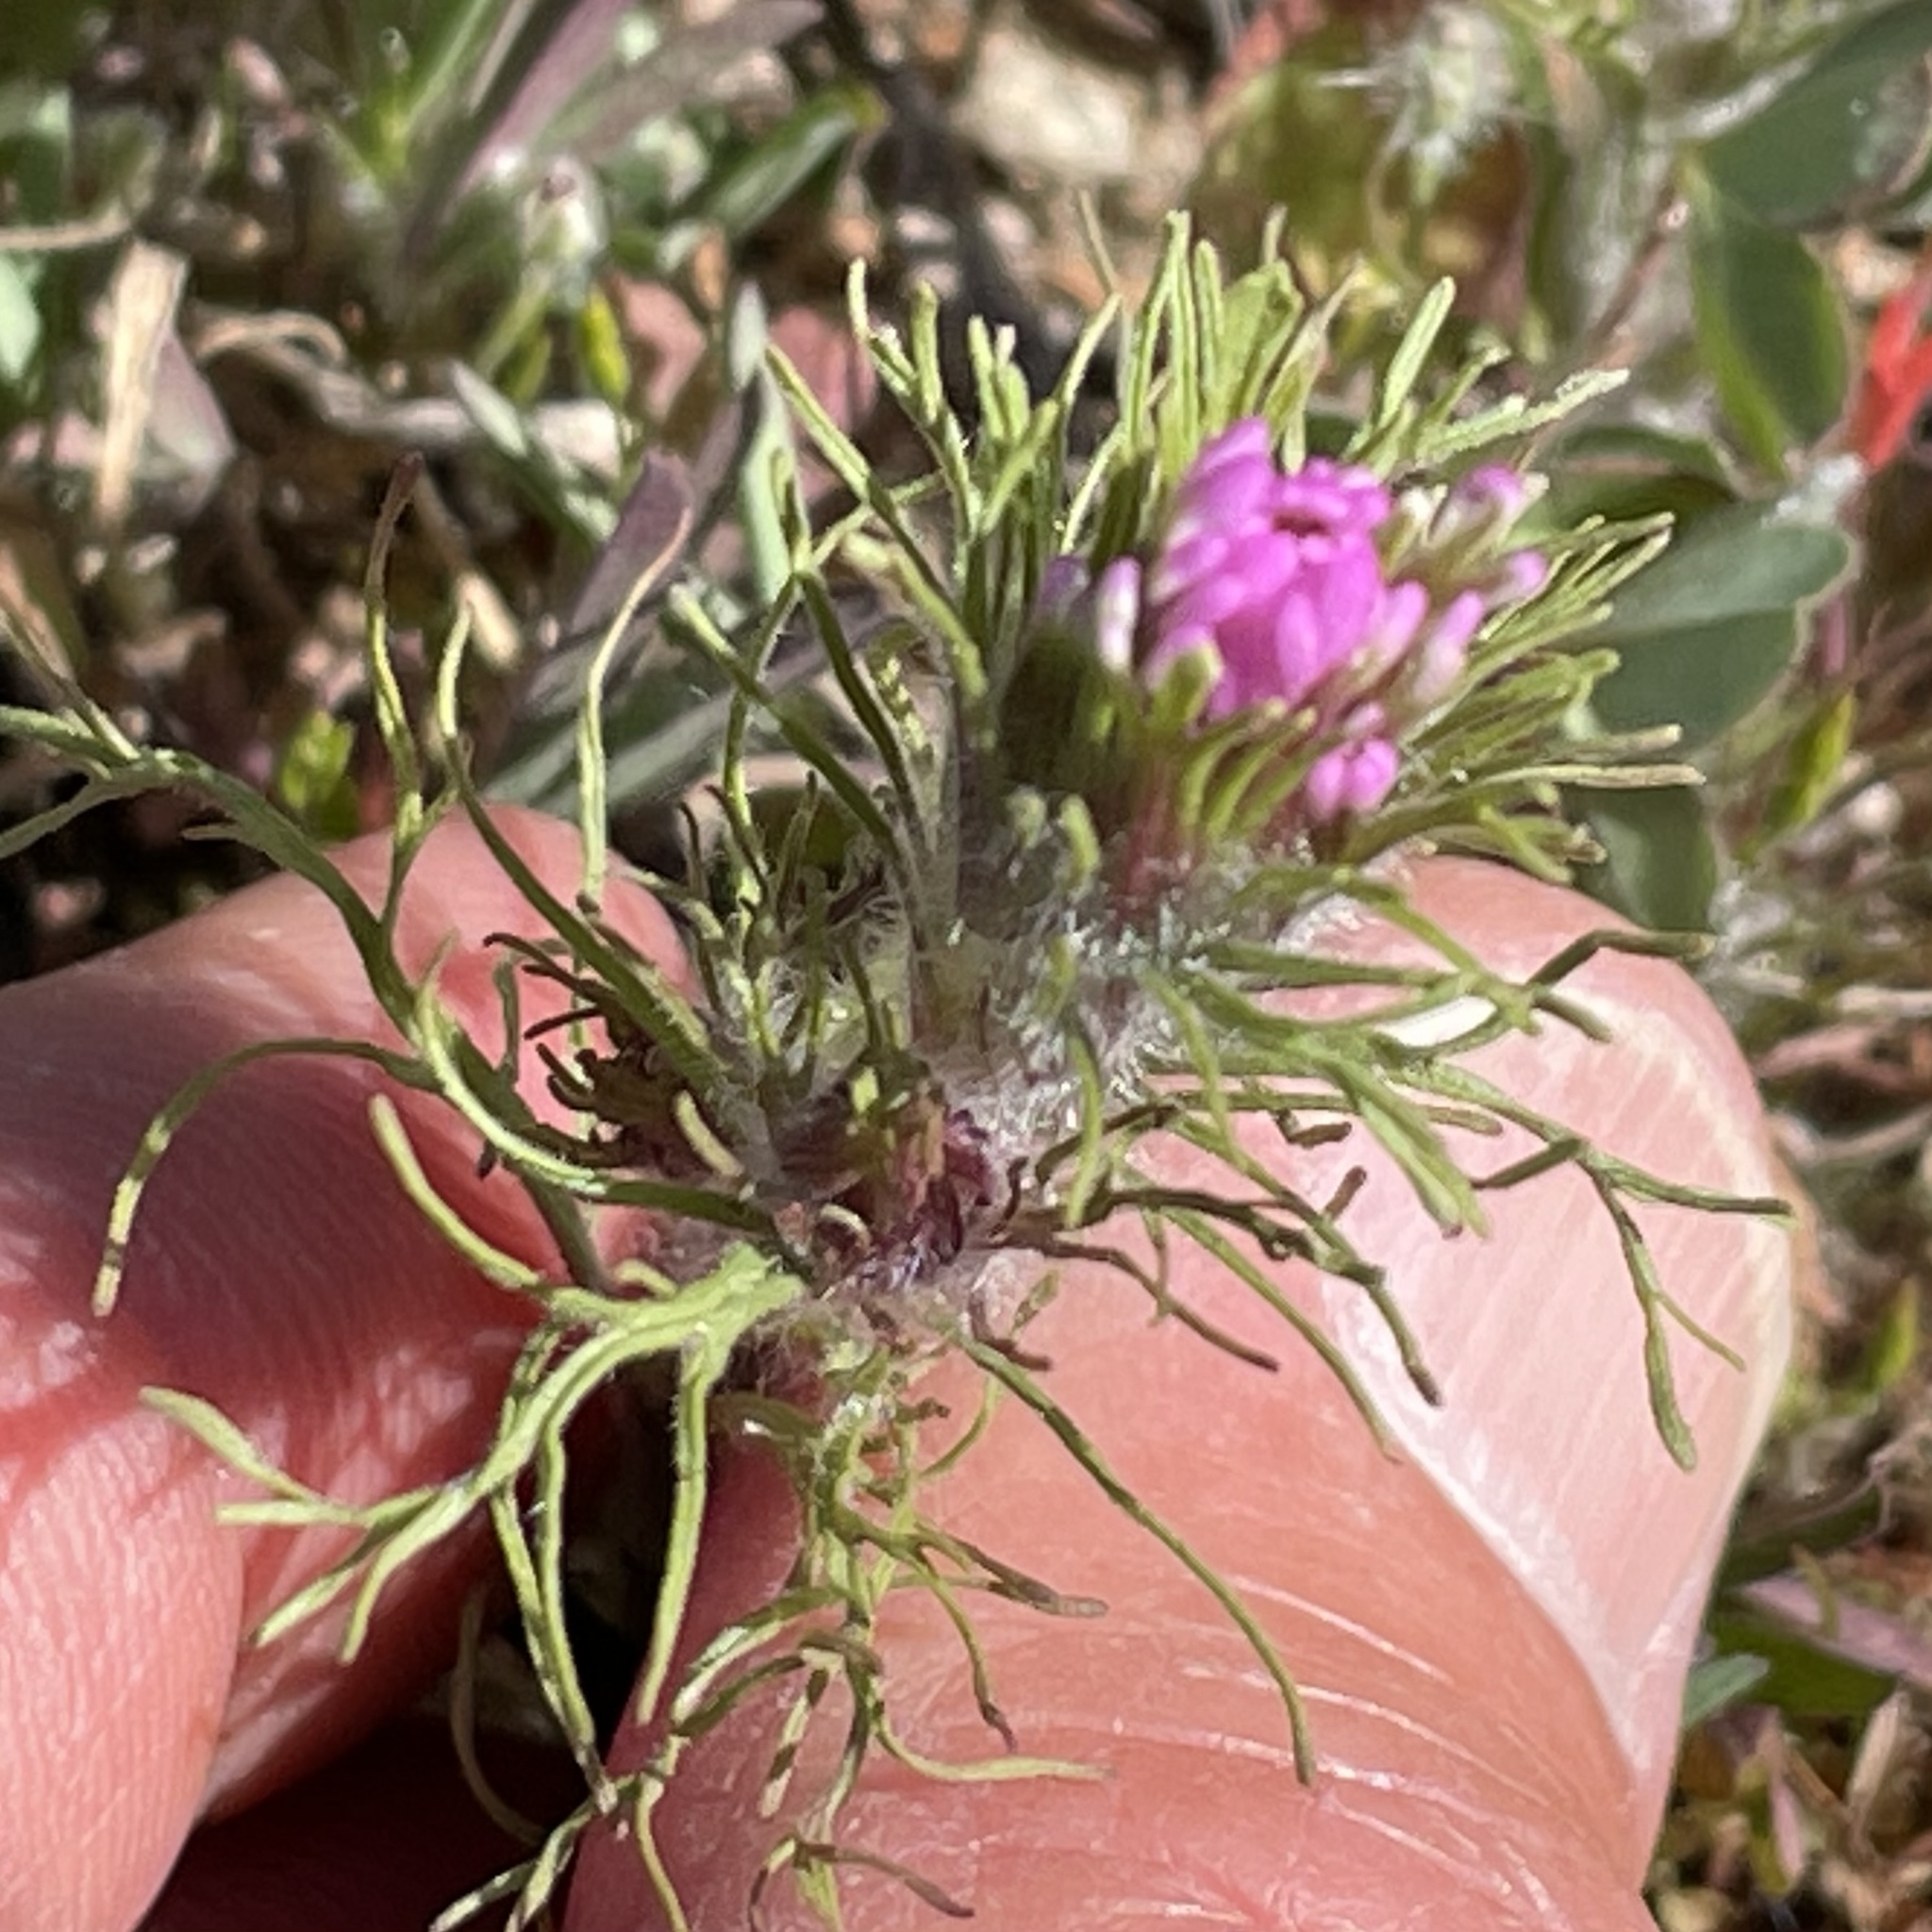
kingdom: Plantae
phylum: Tracheophyta
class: Magnoliopsida
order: Lamiales
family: Orobanchaceae
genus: Castilleja
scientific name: Castilleja exserta
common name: Purple owl-clover
